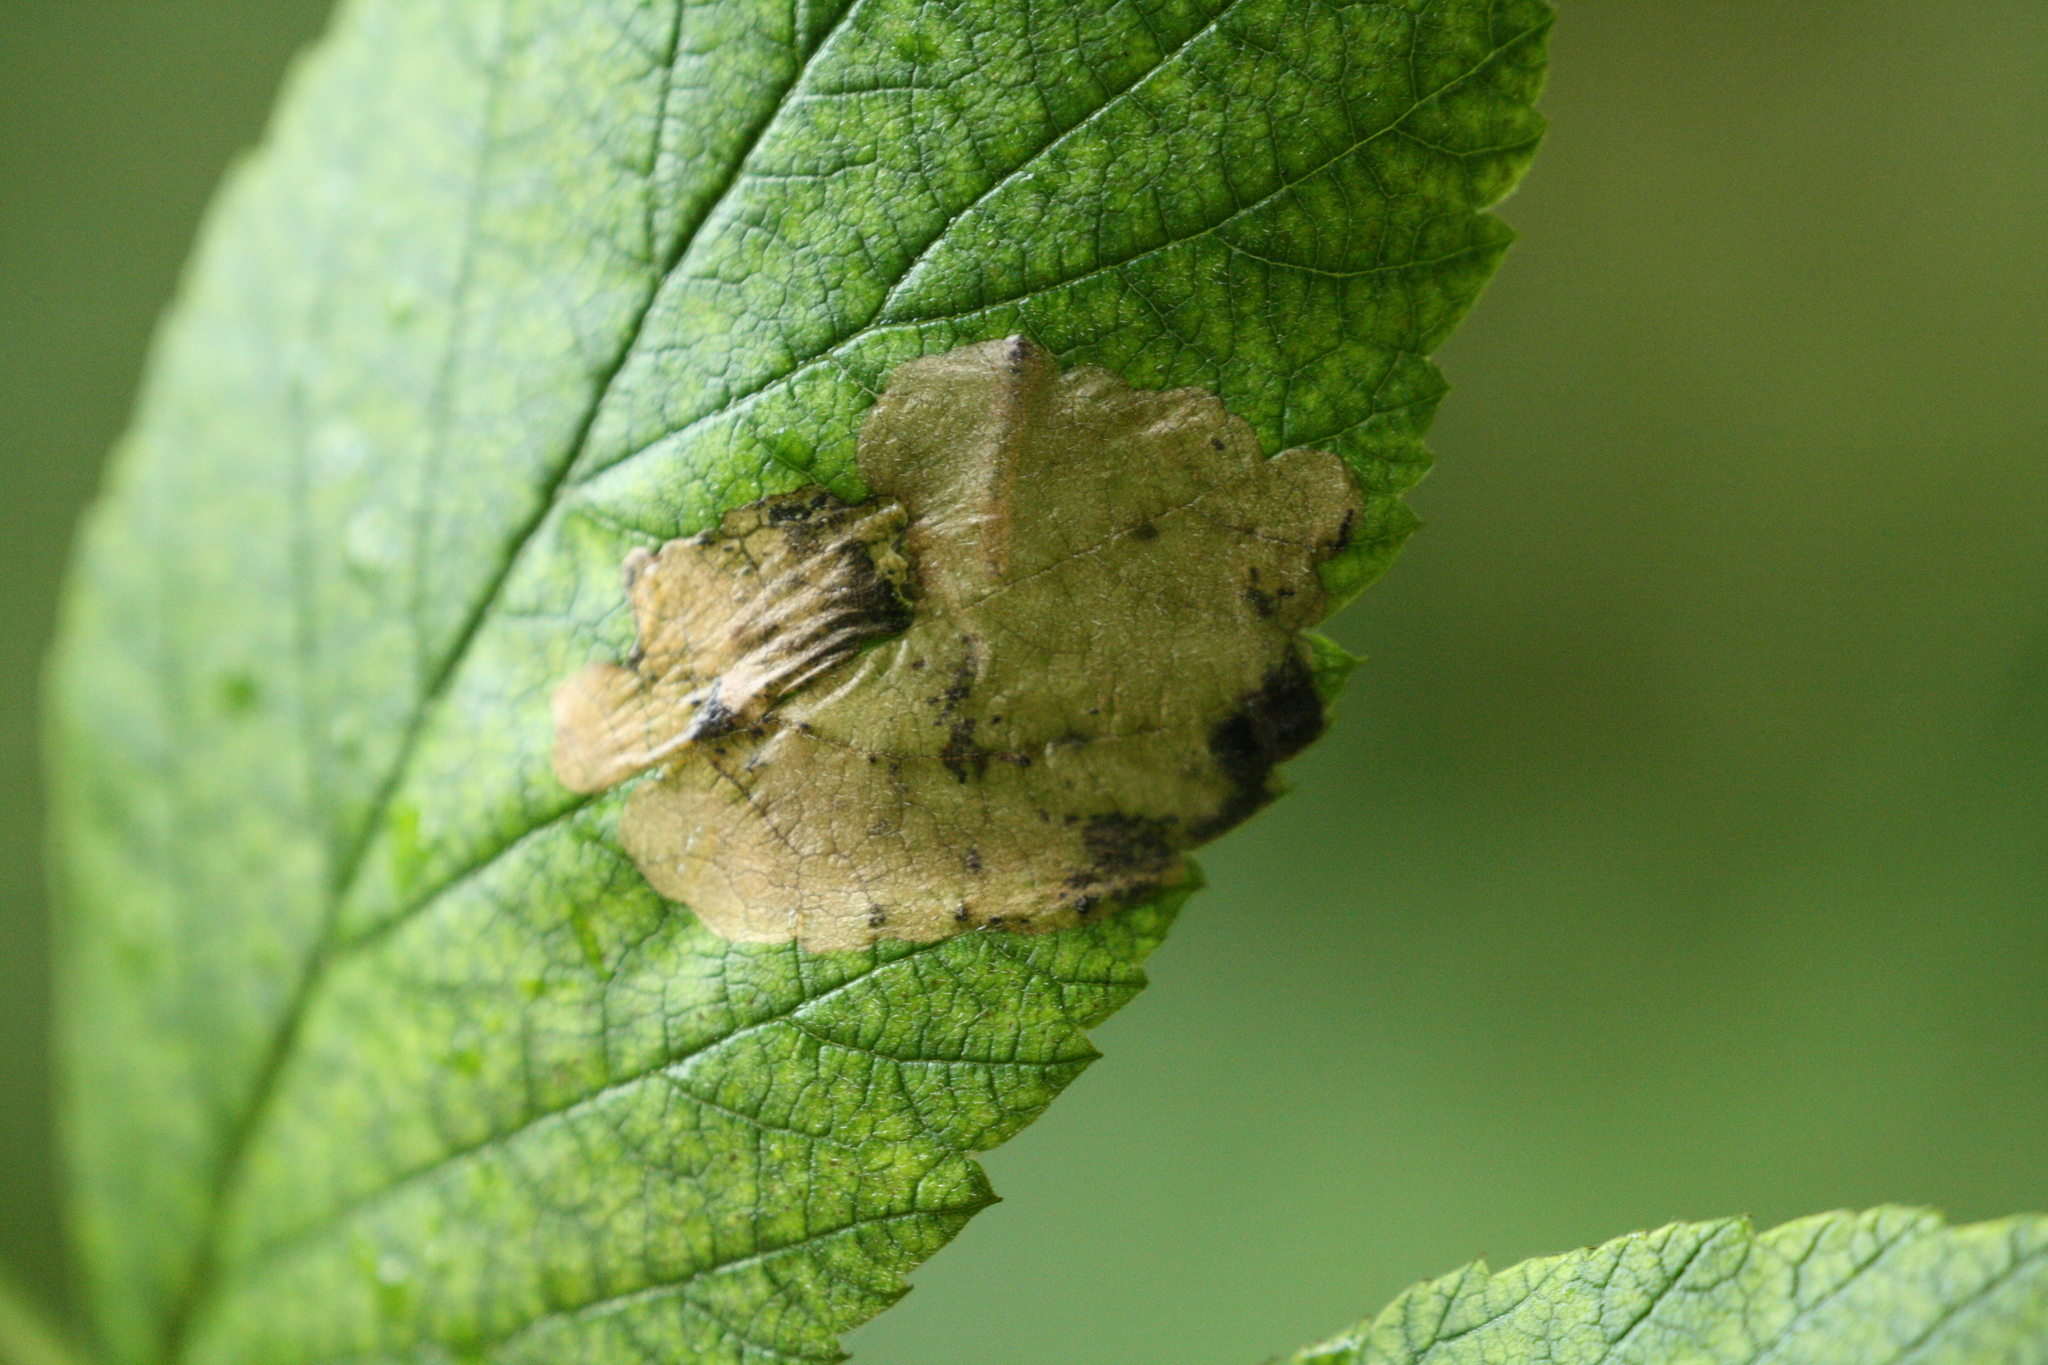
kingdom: Animalia
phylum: Arthropoda
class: Insecta
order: Hymenoptera
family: Tenthredinidae
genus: Metallus
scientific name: Metallus albipes
